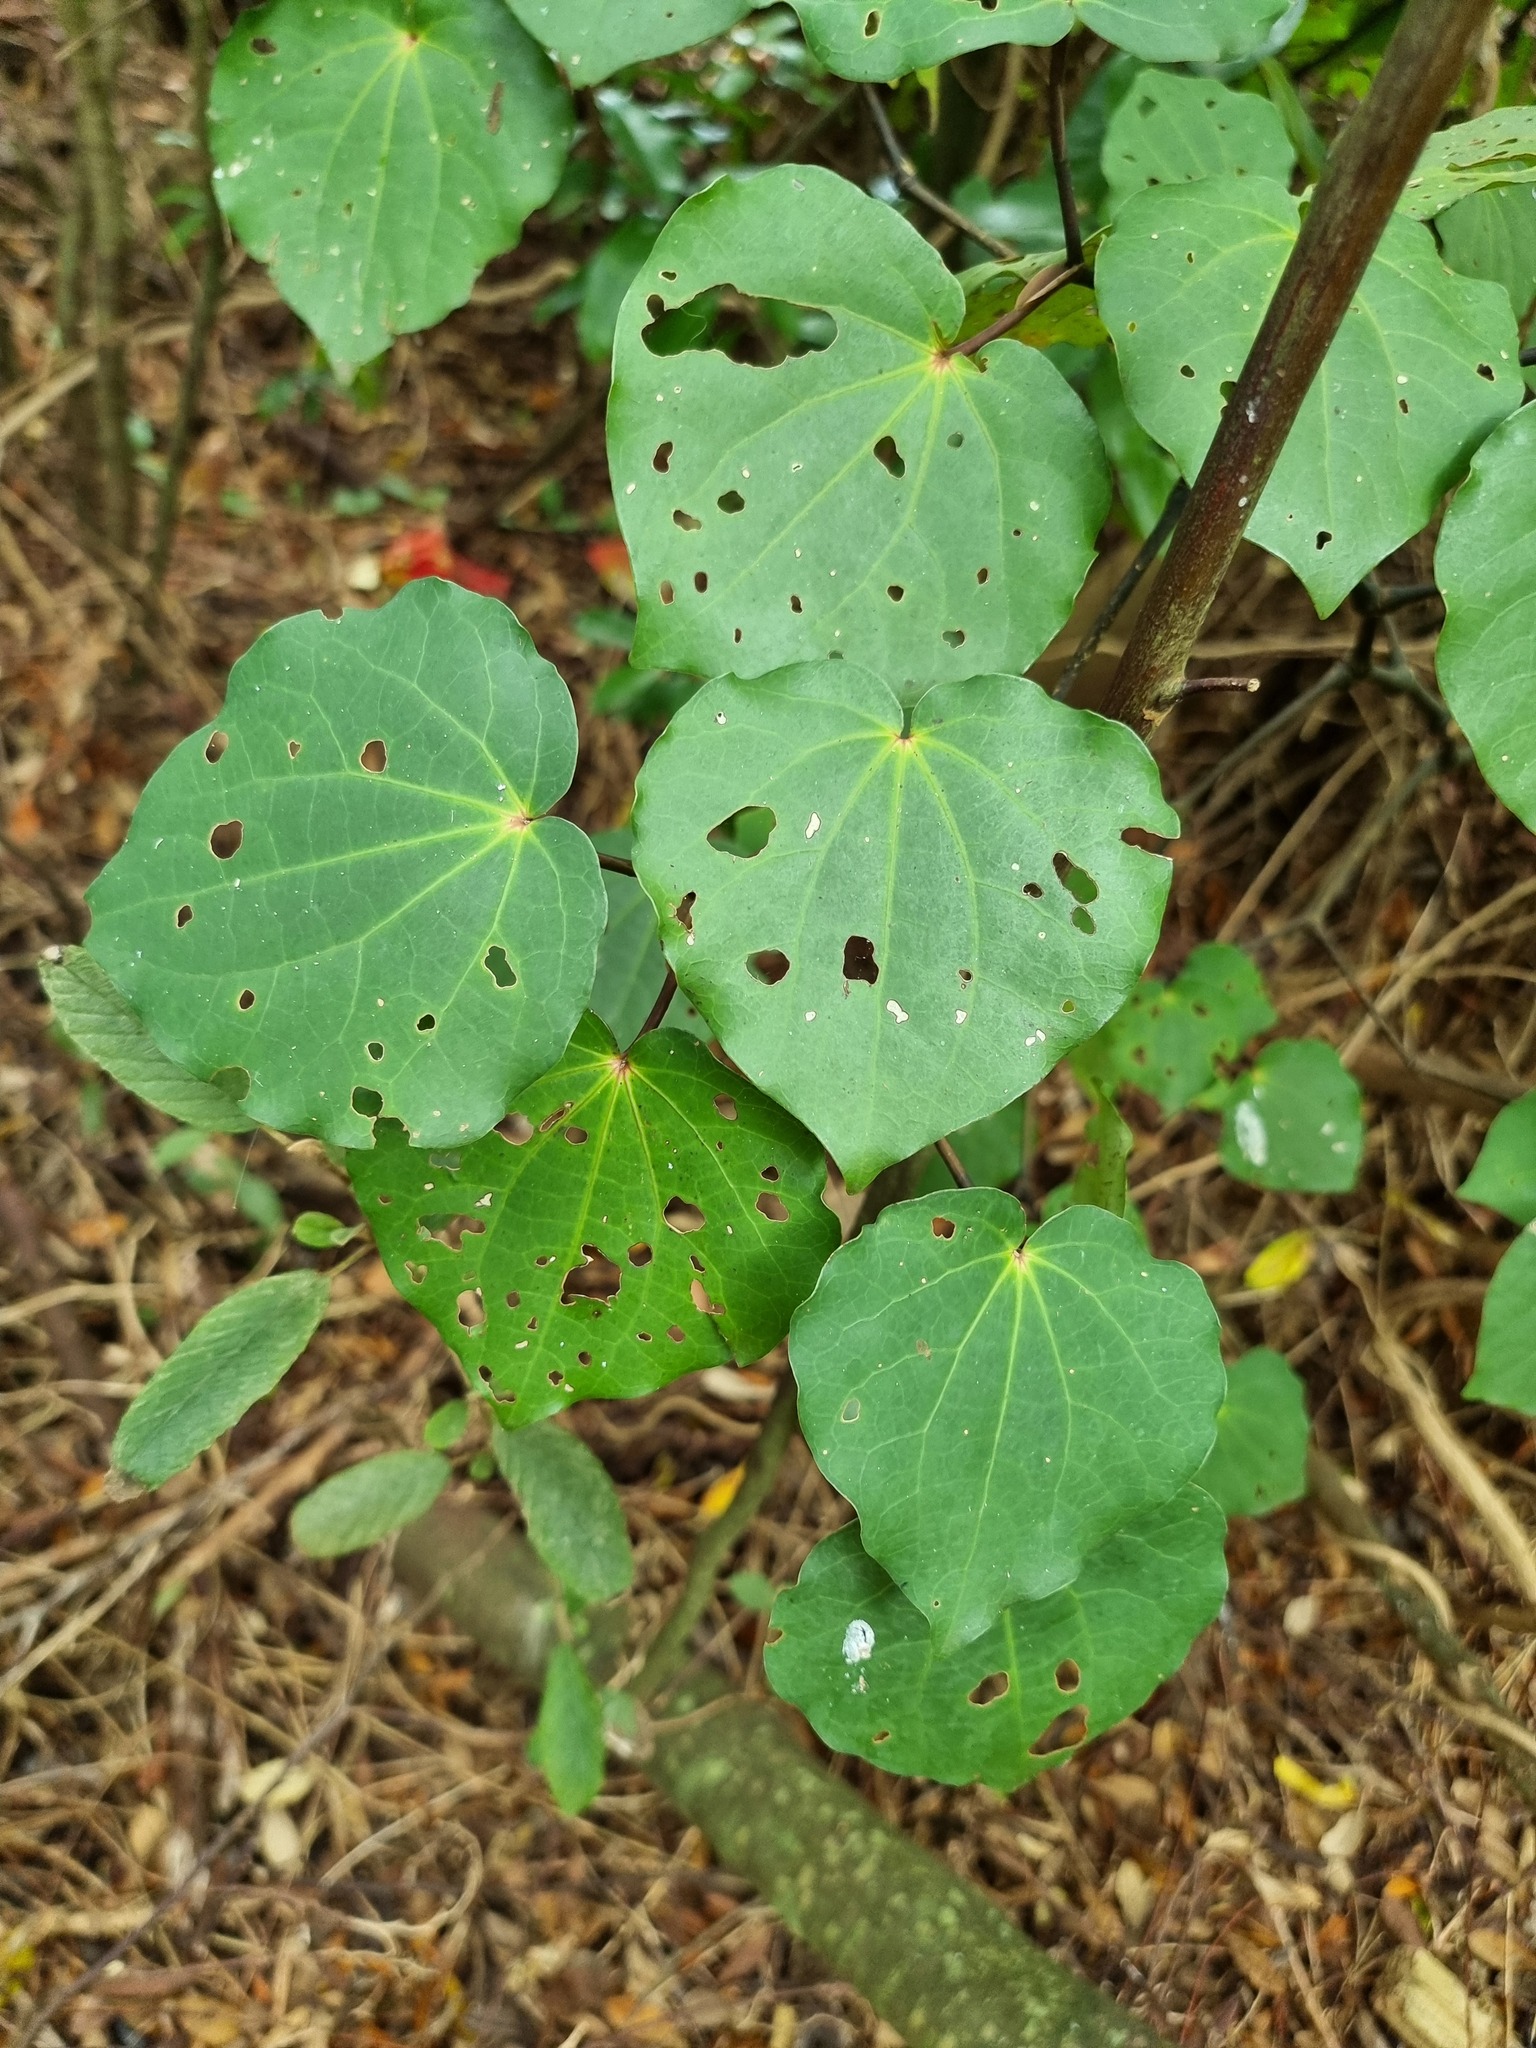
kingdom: Plantae
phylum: Tracheophyta
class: Magnoliopsida
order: Piperales
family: Piperaceae
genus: Macropiper
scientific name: Macropiper excelsum
